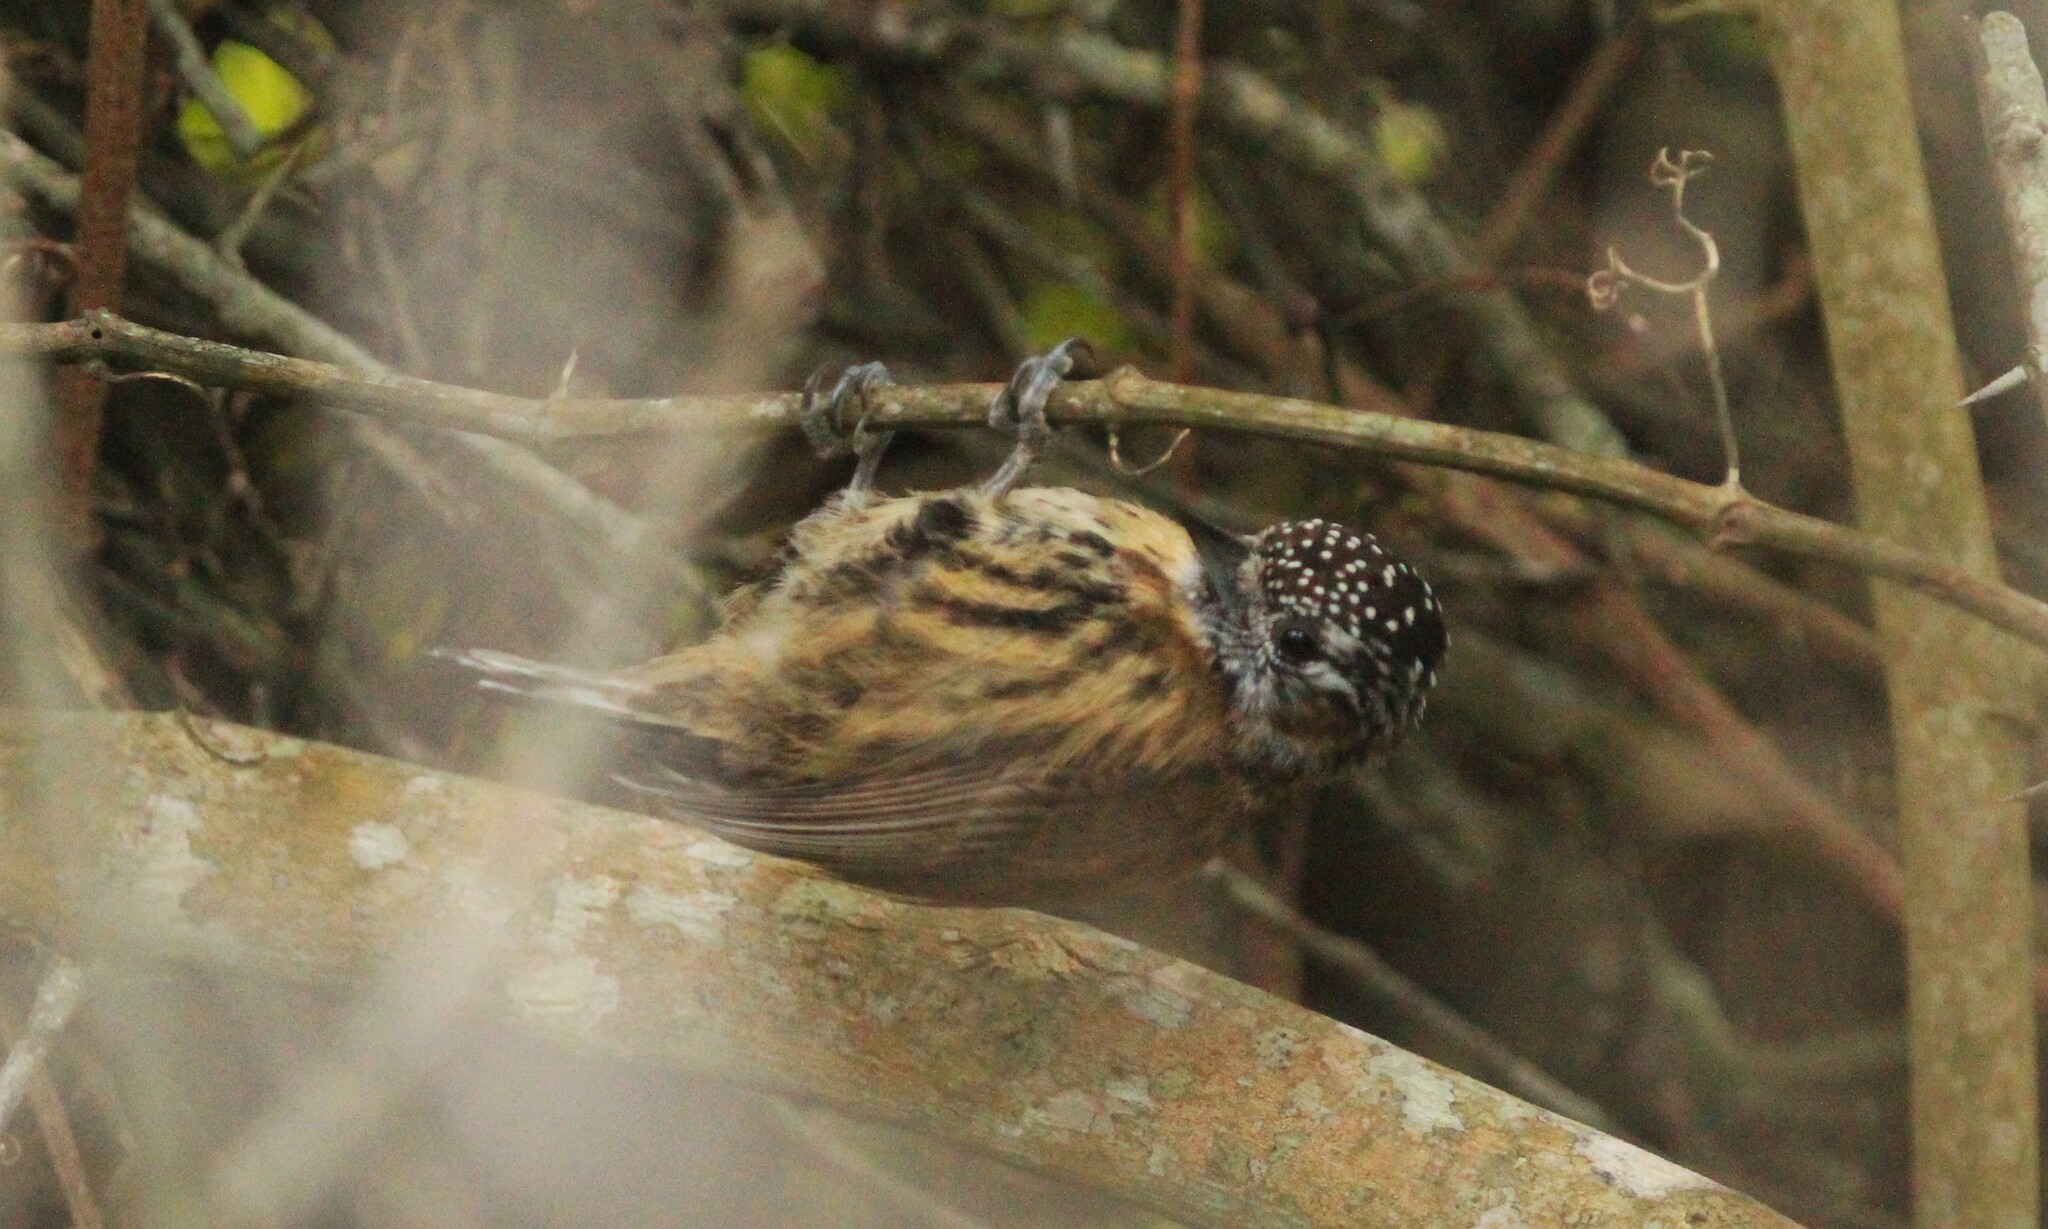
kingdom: Animalia
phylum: Chordata
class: Aves
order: Piciformes
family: Picidae
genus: Picumnus
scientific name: Picumnus nebulosus
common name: Mottled piculet
